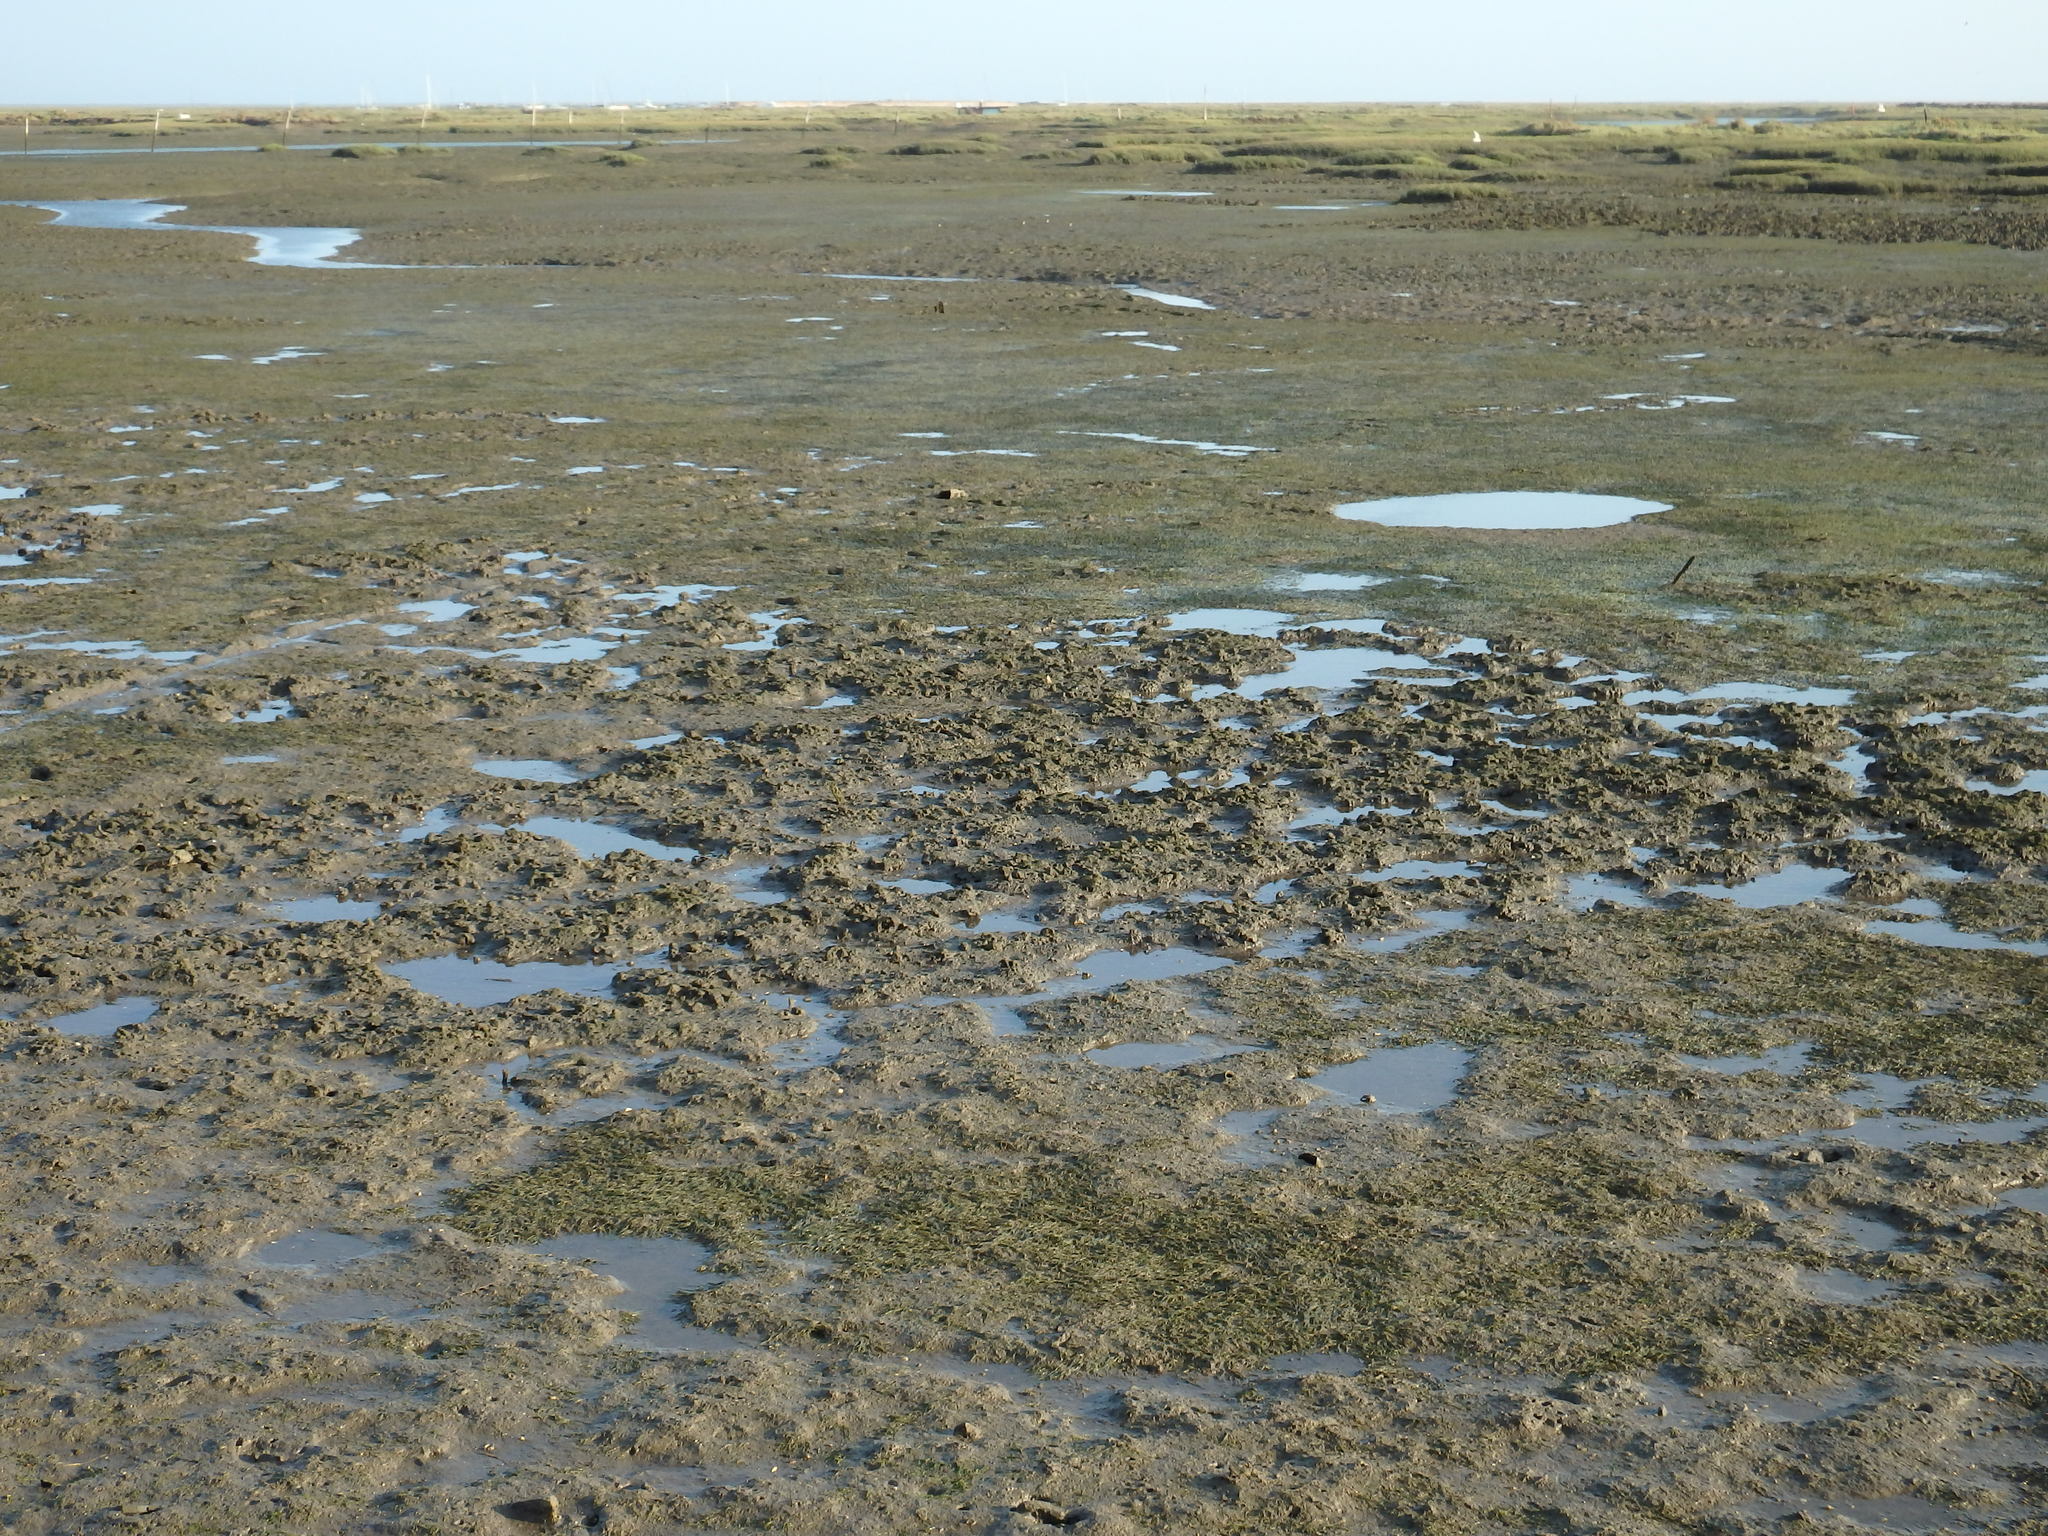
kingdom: Plantae
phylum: Tracheophyta
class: Liliopsida
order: Alismatales
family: Zosteraceae
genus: Zostera
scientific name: Zostera noltii
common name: Dwarf eelgrass
